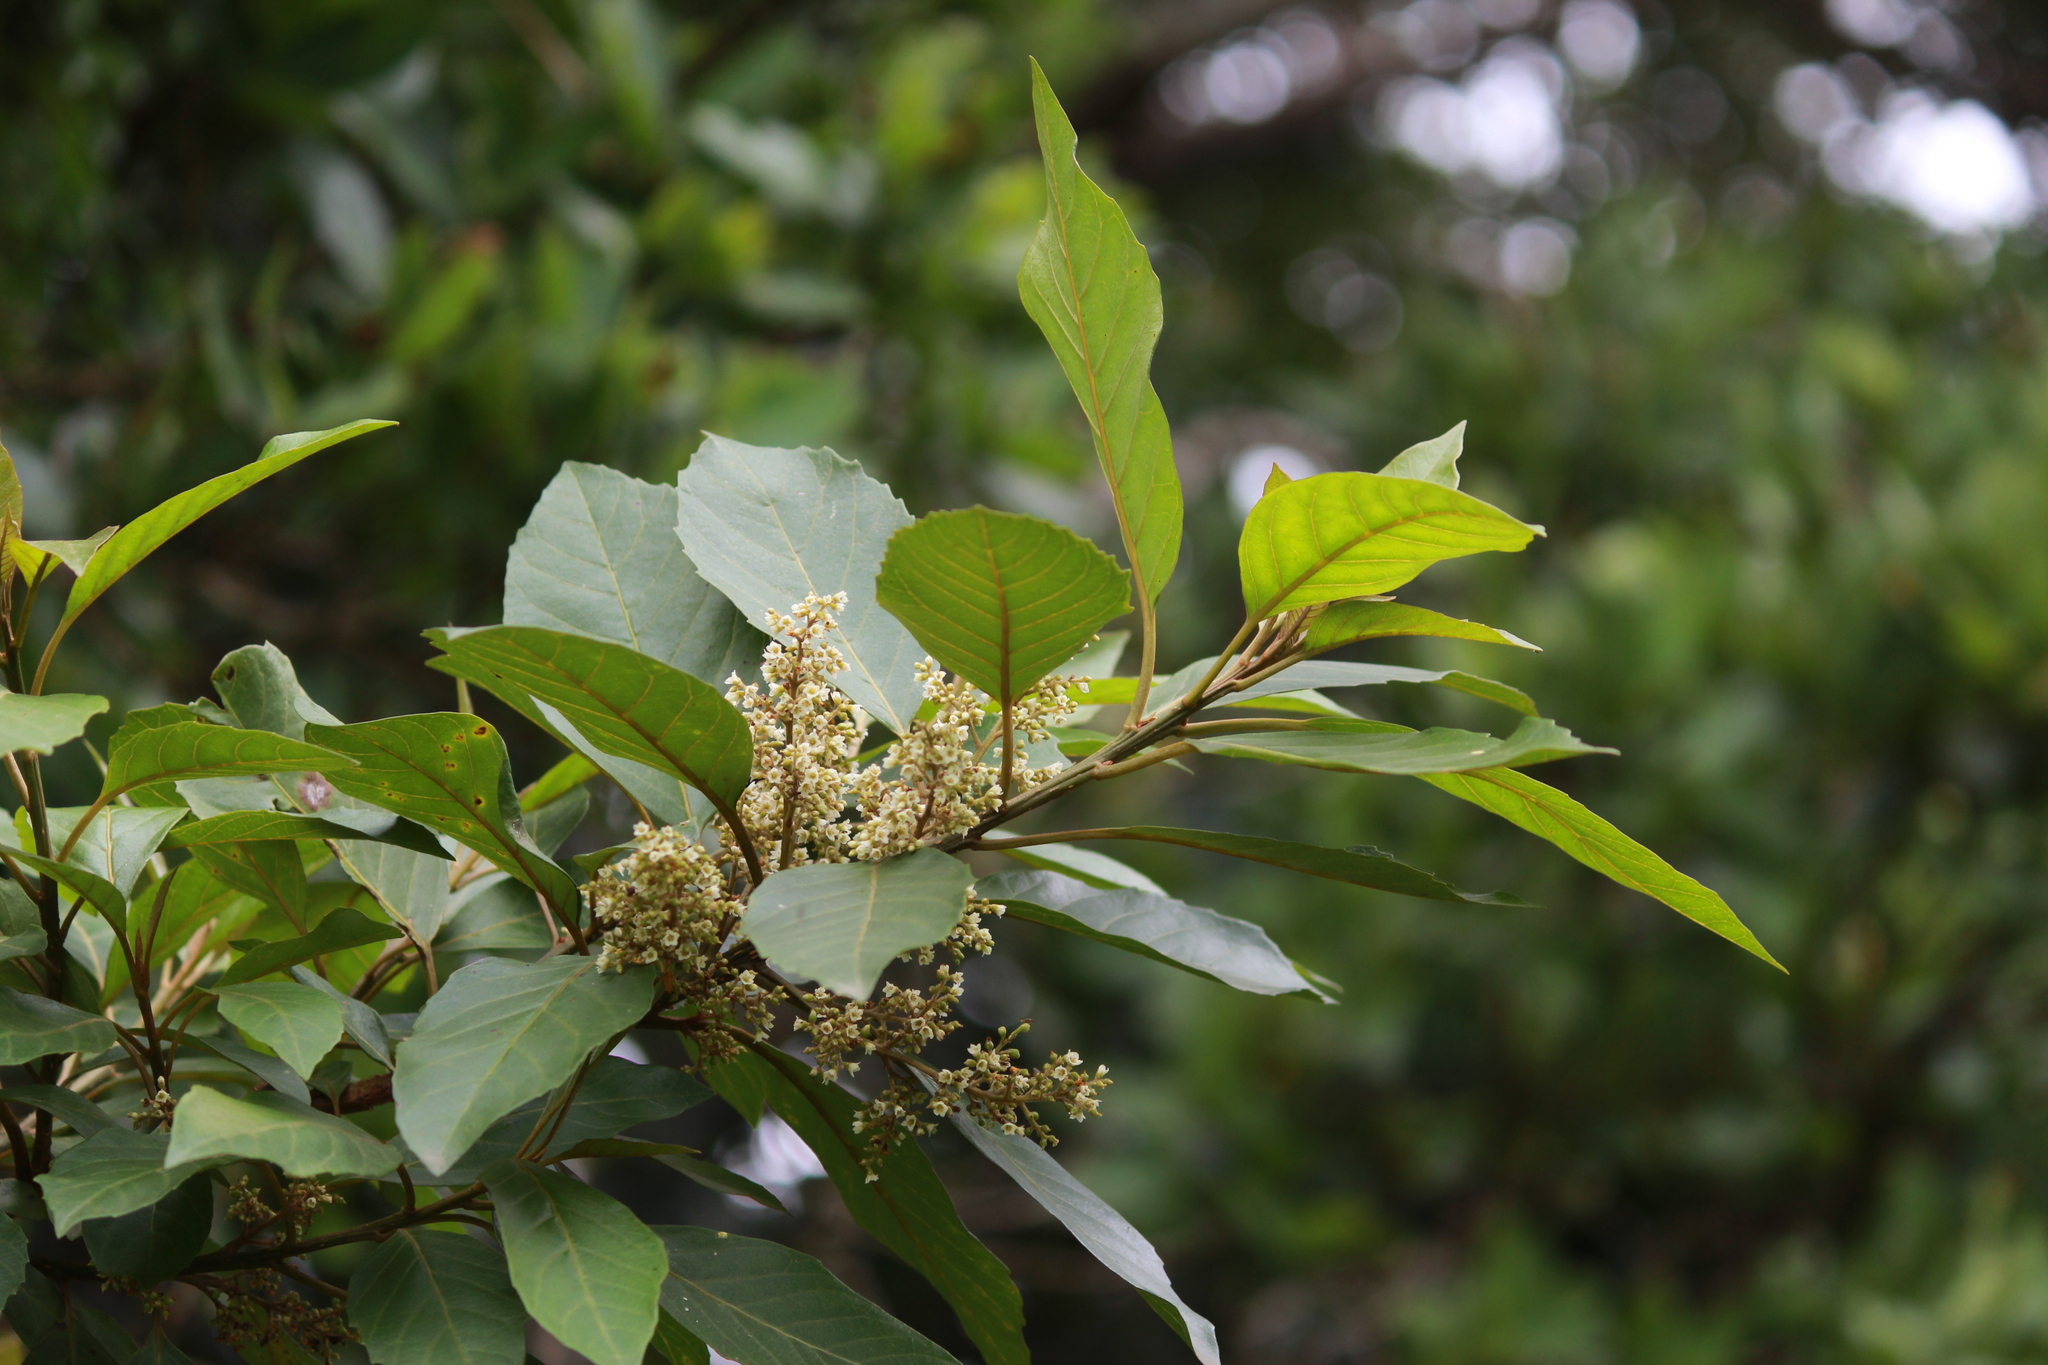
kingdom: Plantae
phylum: Tracheophyta
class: Magnoliopsida
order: Ericales
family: Primulaceae
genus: Maesa
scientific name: Maesa lanceolata
